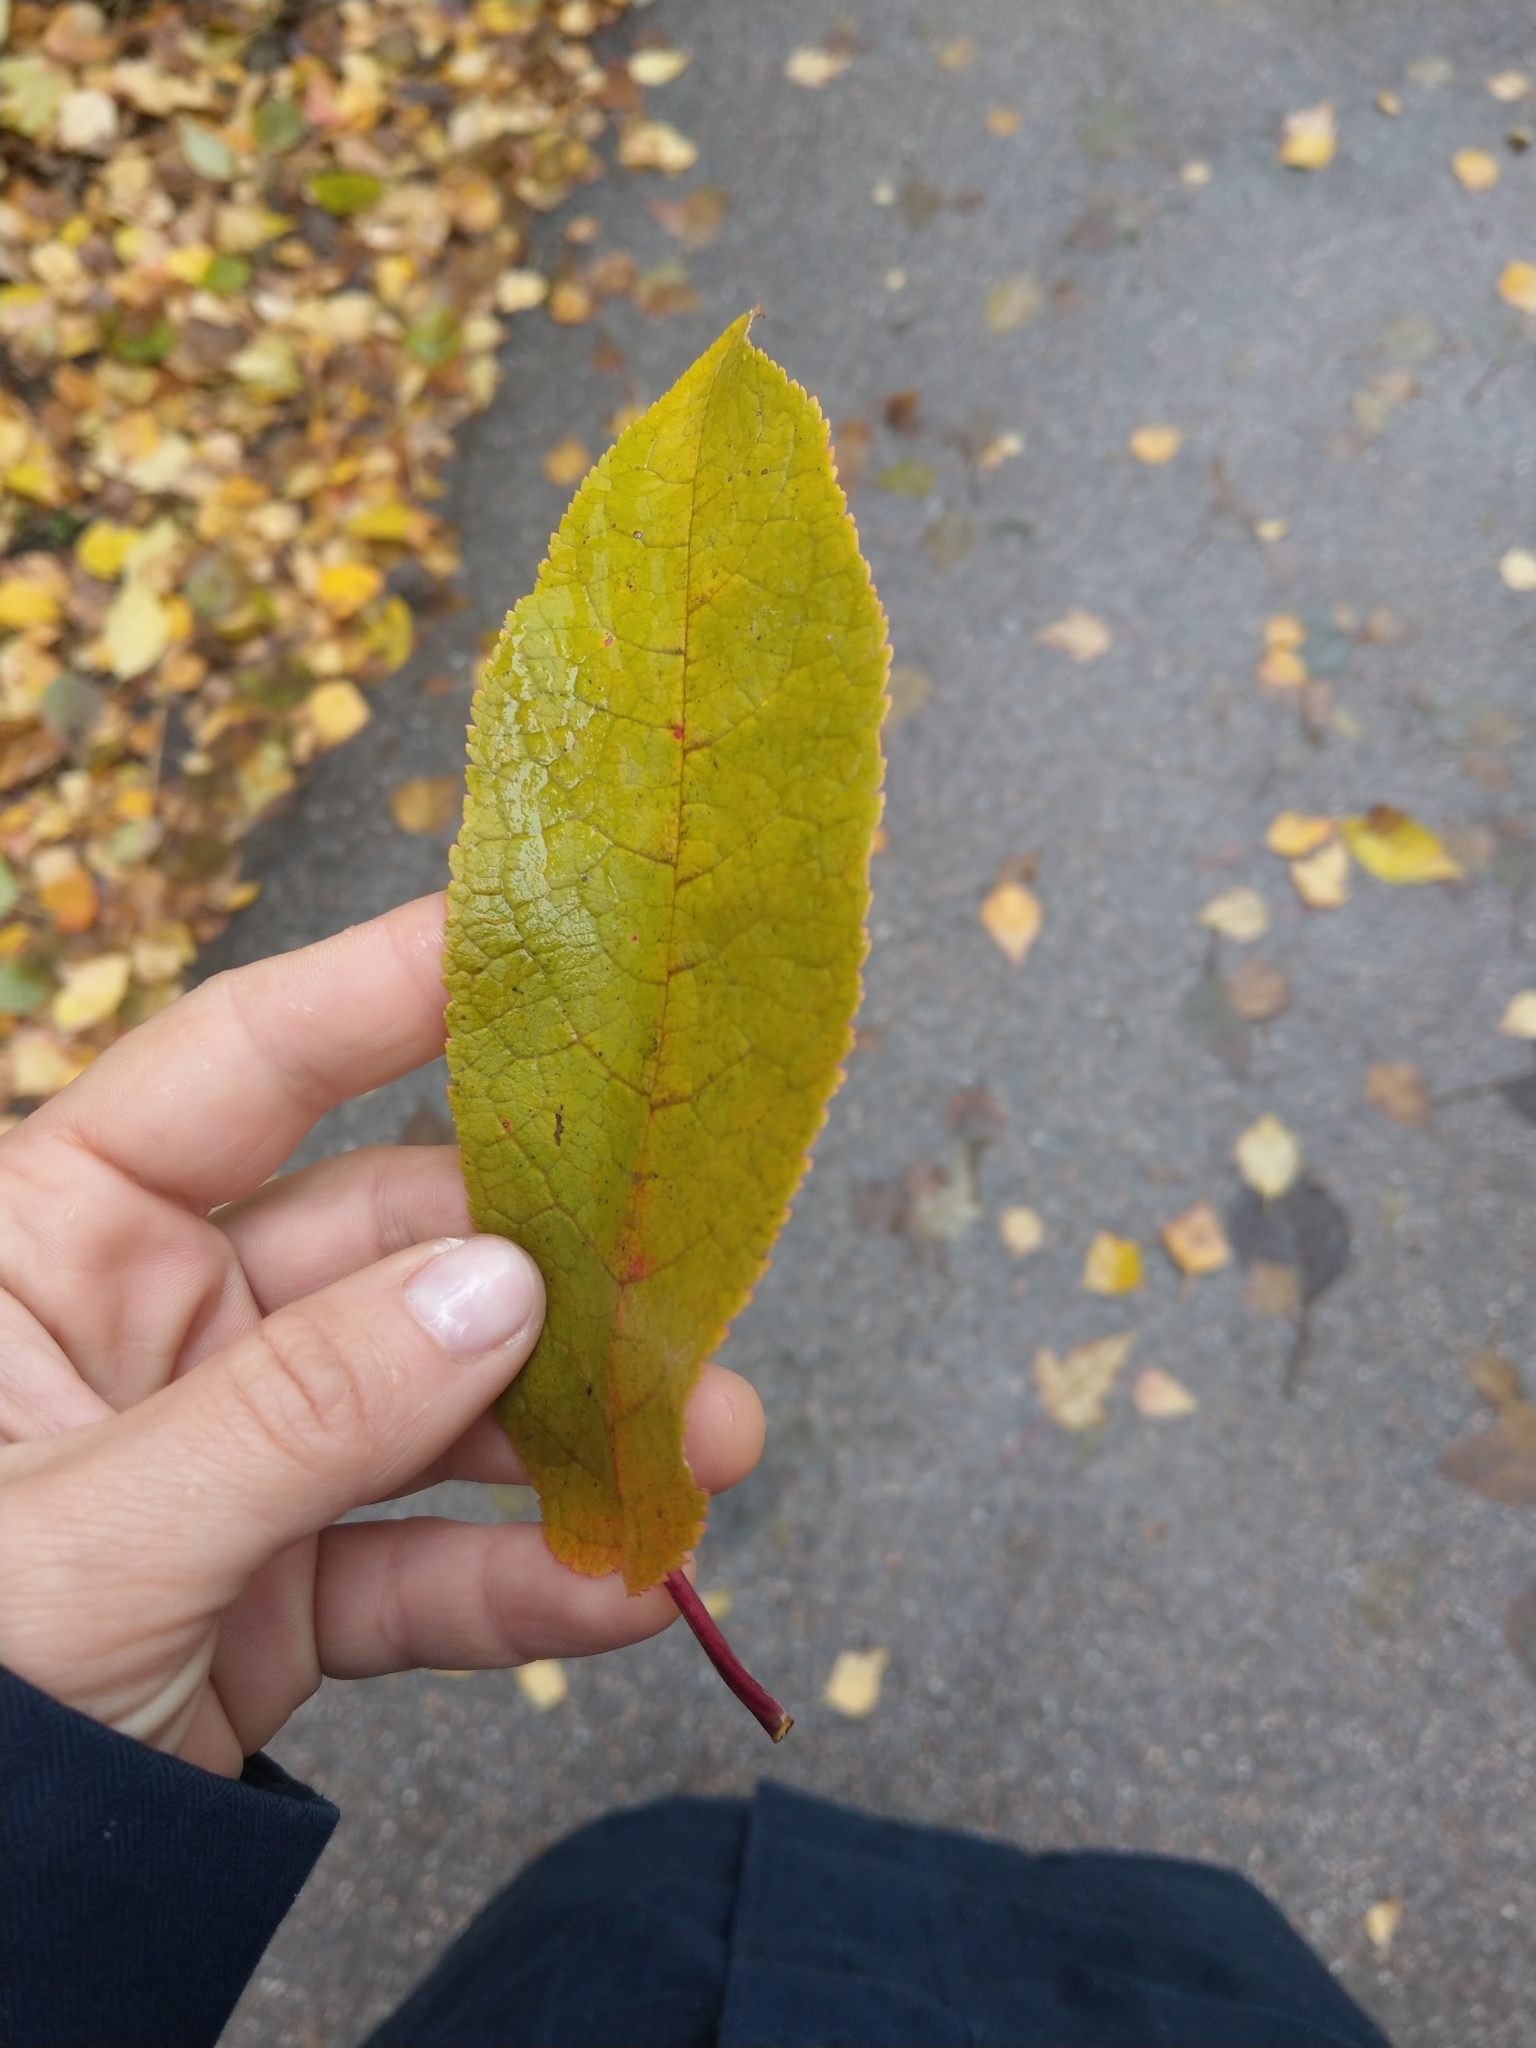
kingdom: Plantae
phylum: Tracheophyta
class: Magnoliopsida
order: Rosales
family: Rosaceae
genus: Prunus
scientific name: Prunus padus
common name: Bird cherry
